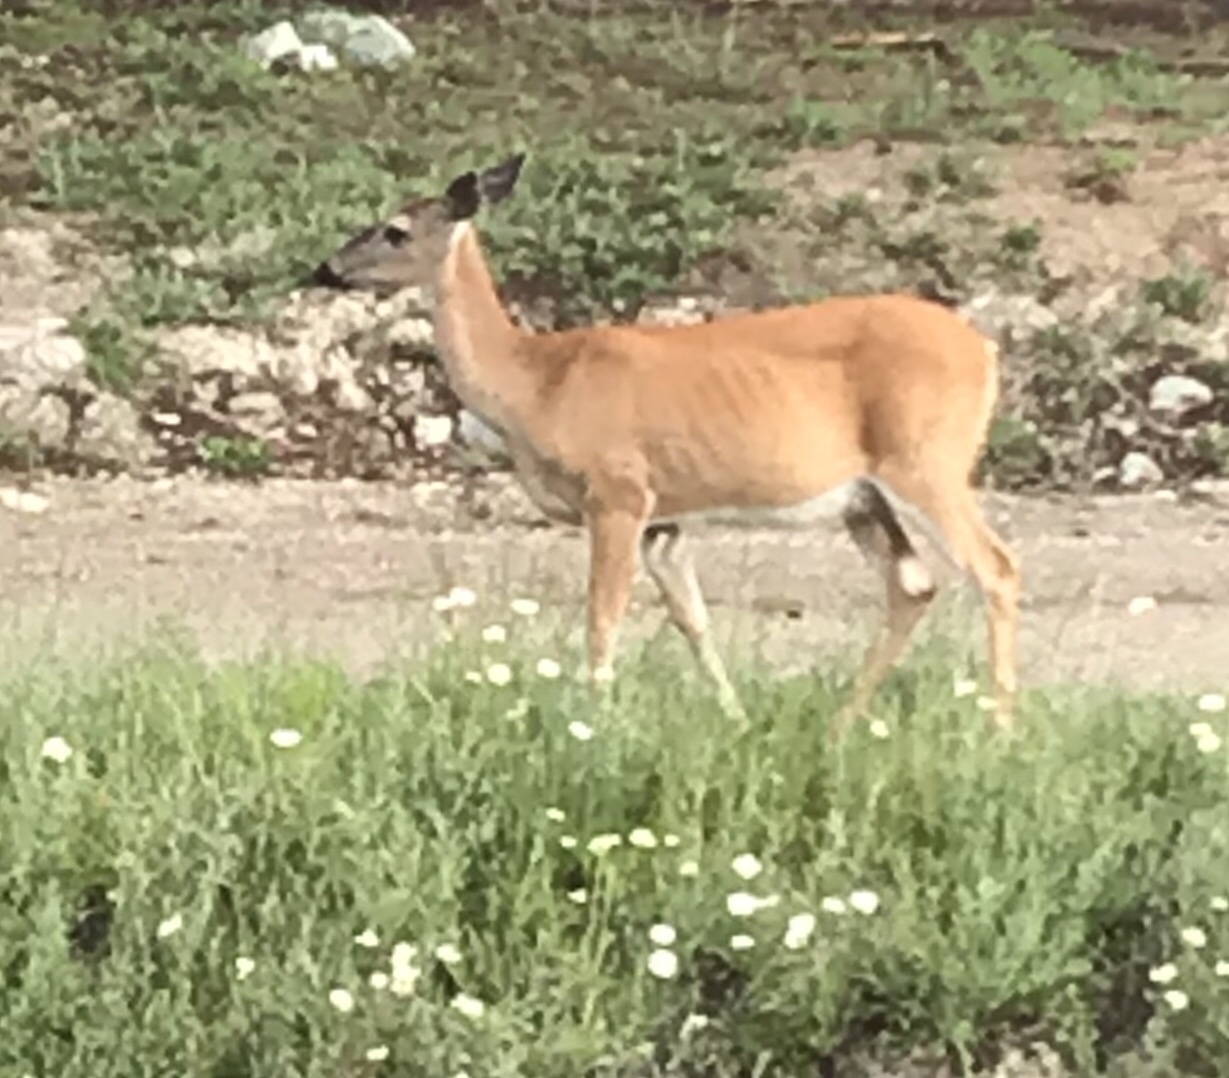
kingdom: Animalia
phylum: Chordata
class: Mammalia
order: Artiodactyla
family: Cervidae
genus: Odocoileus
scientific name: Odocoileus virginianus
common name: White-tailed deer
